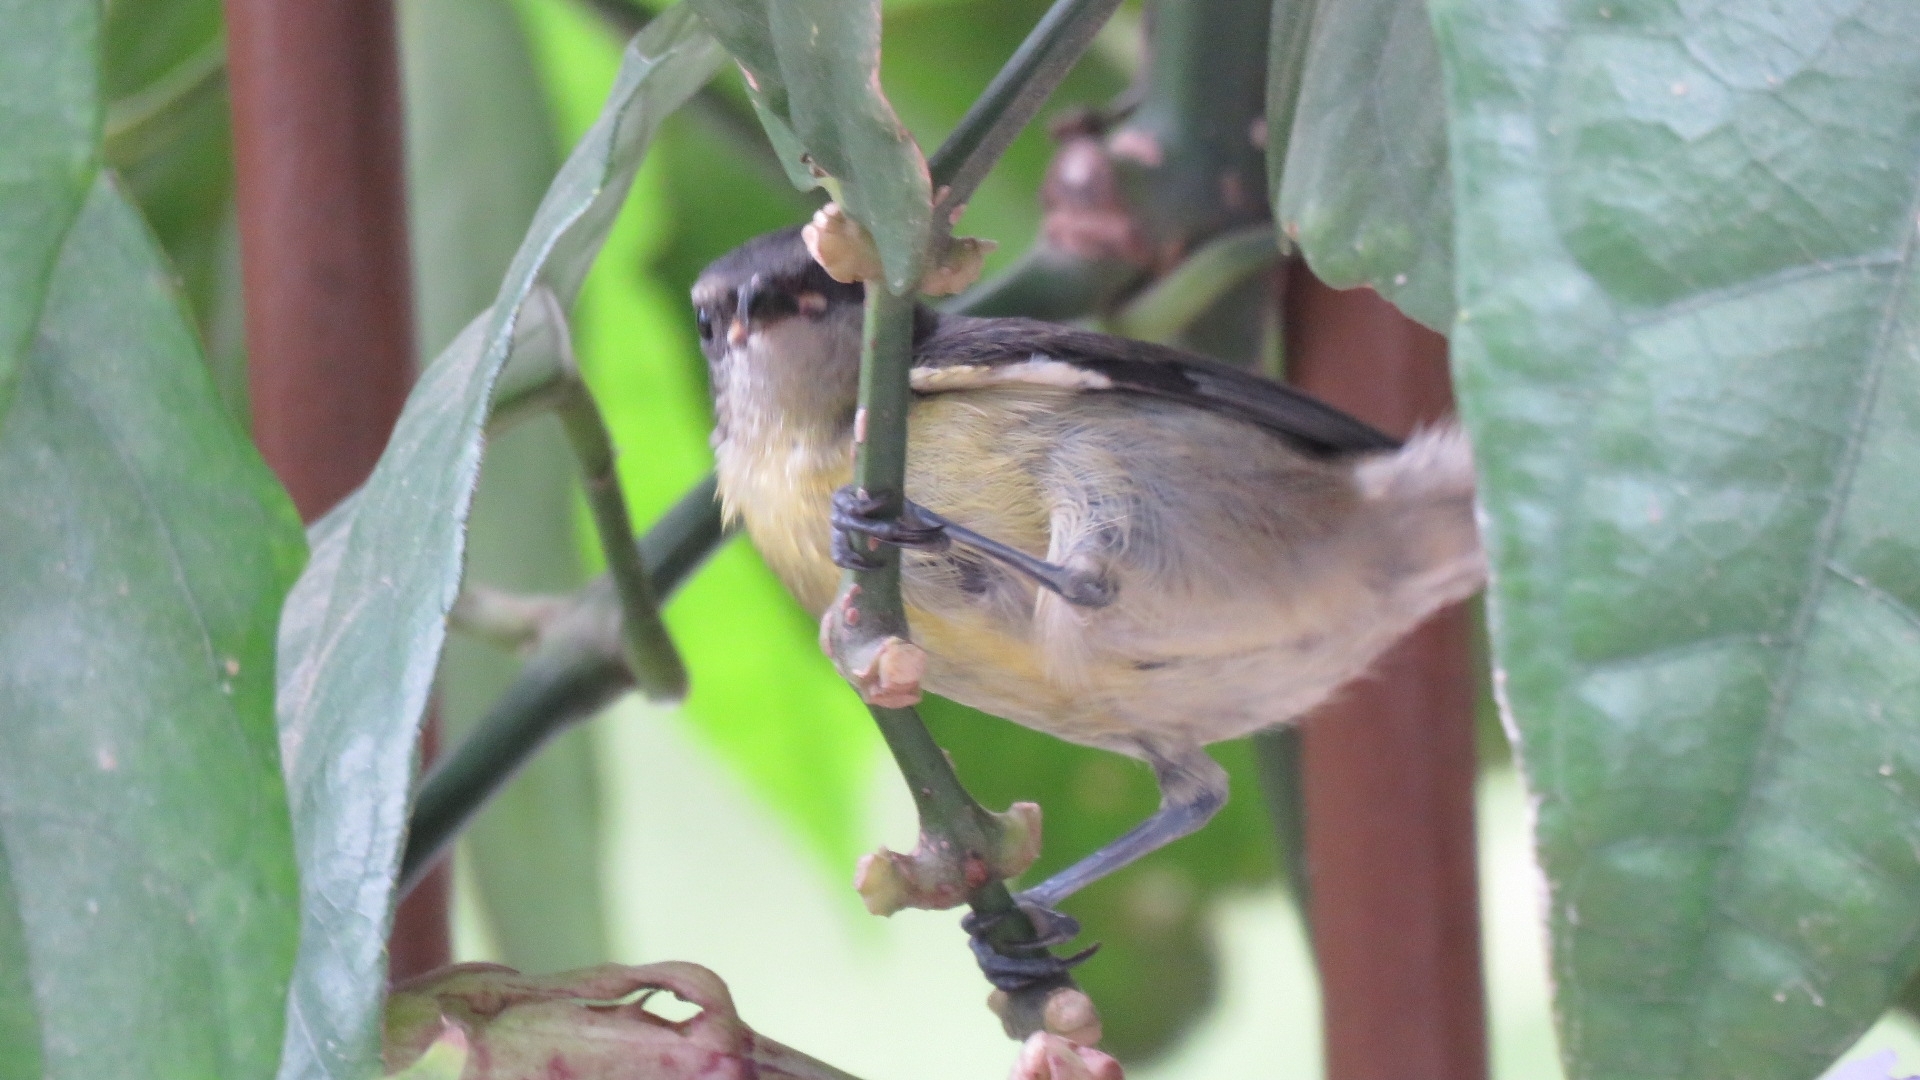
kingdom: Animalia
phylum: Chordata
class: Aves
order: Passeriformes
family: Thraupidae
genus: Coereba
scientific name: Coereba flaveola
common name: Bananaquit
